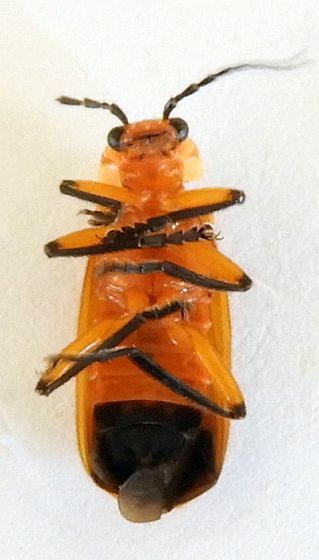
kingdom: Animalia
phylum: Arthropoda
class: Insecta
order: Coleoptera
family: Cantharidae
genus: Discodon
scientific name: Discodon abdominale
